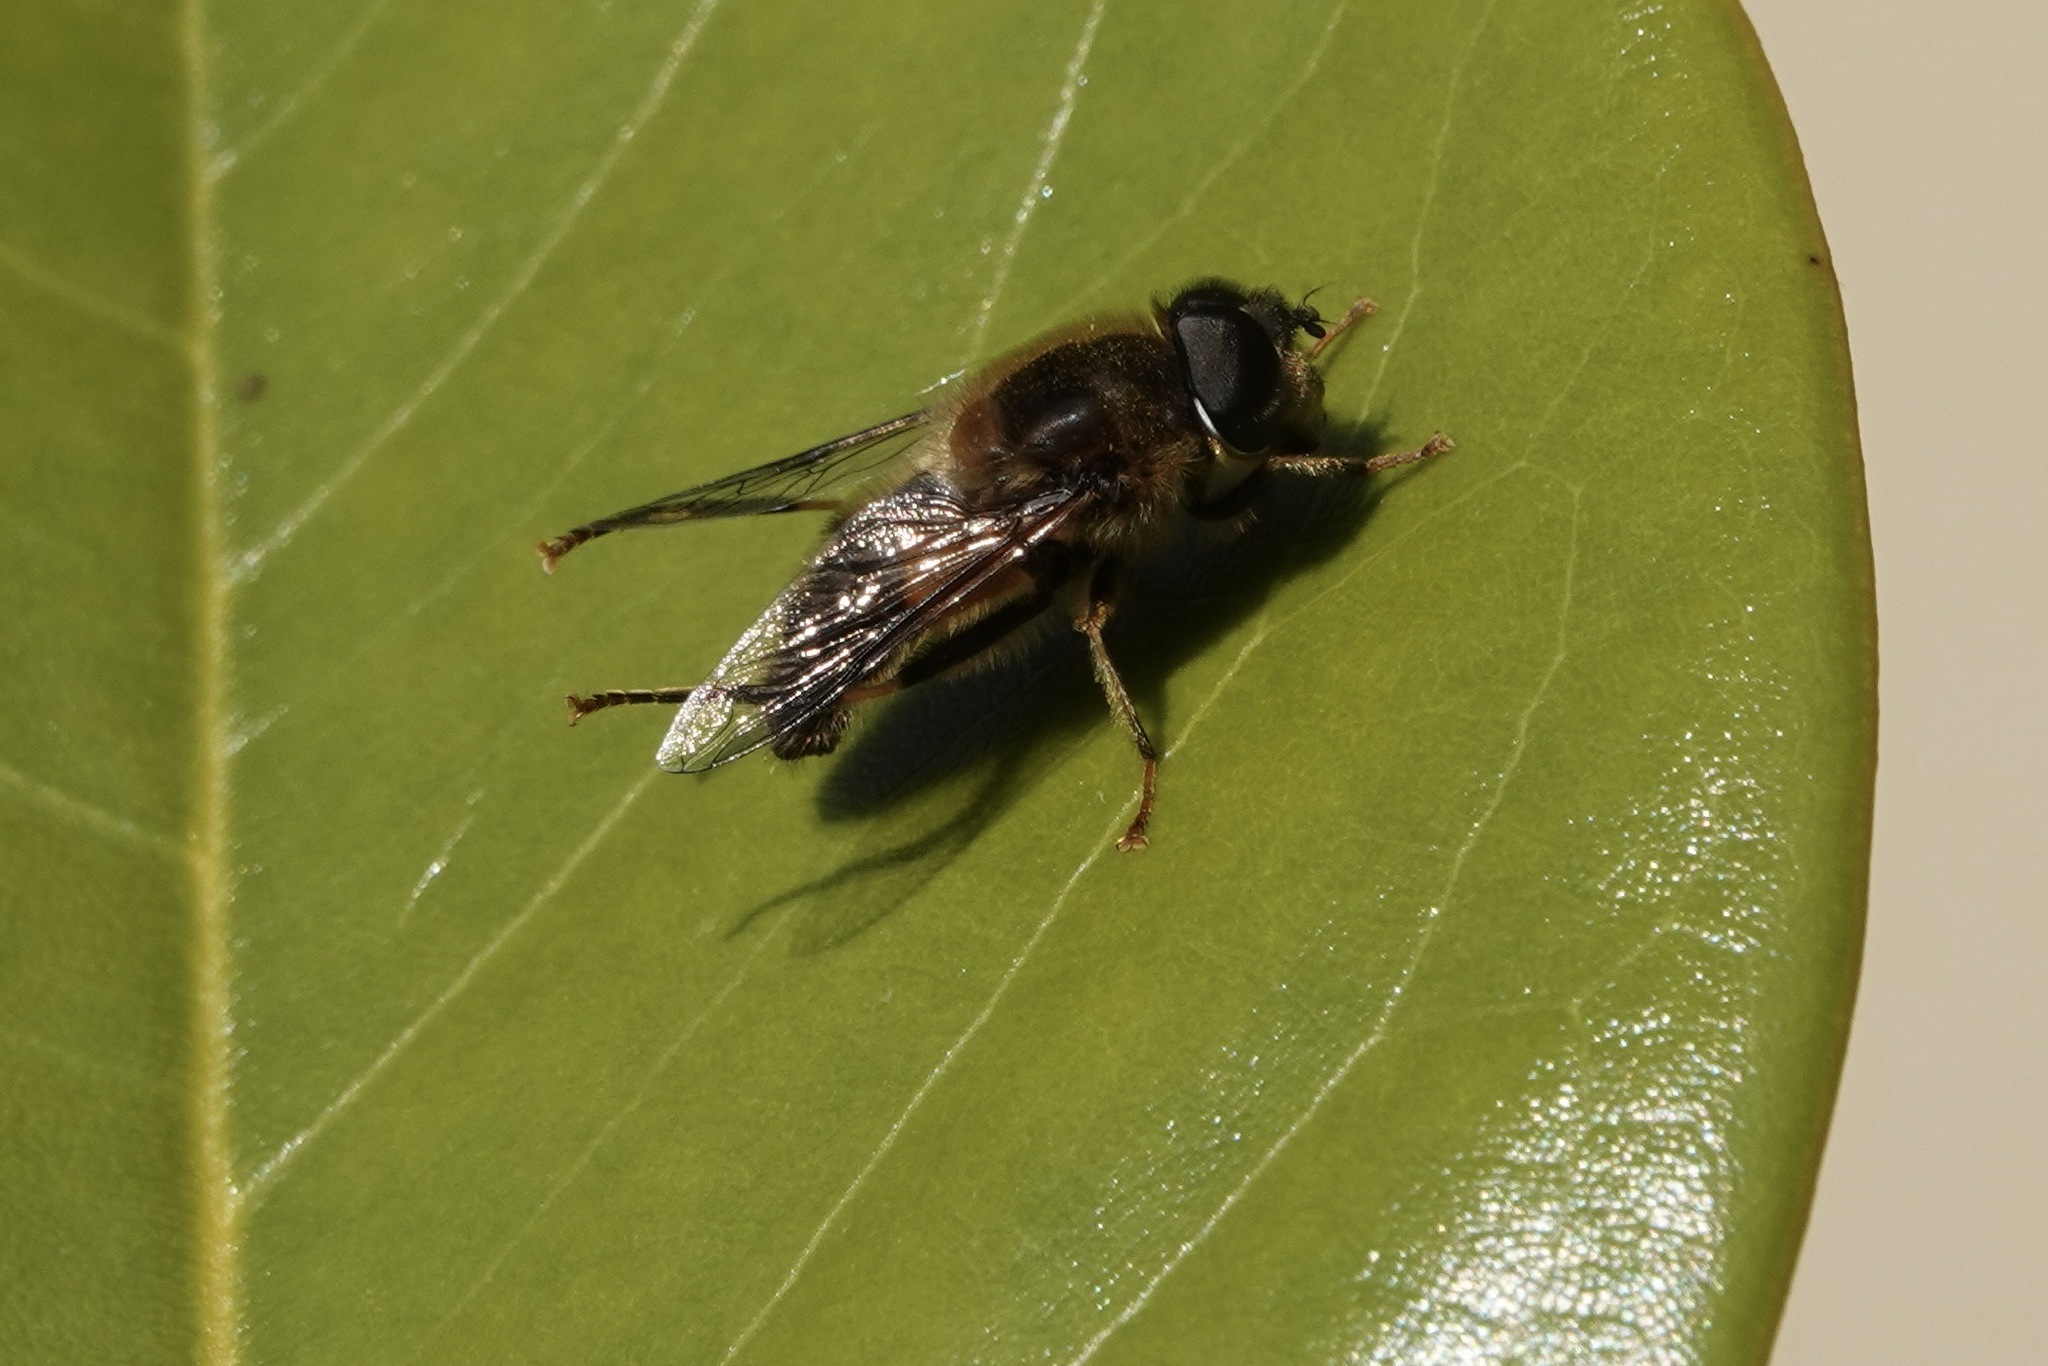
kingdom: Animalia
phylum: Arthropoda
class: Insecta
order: Diptera
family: Syrphidae
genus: Eristalis
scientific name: Eristalis pertinax
